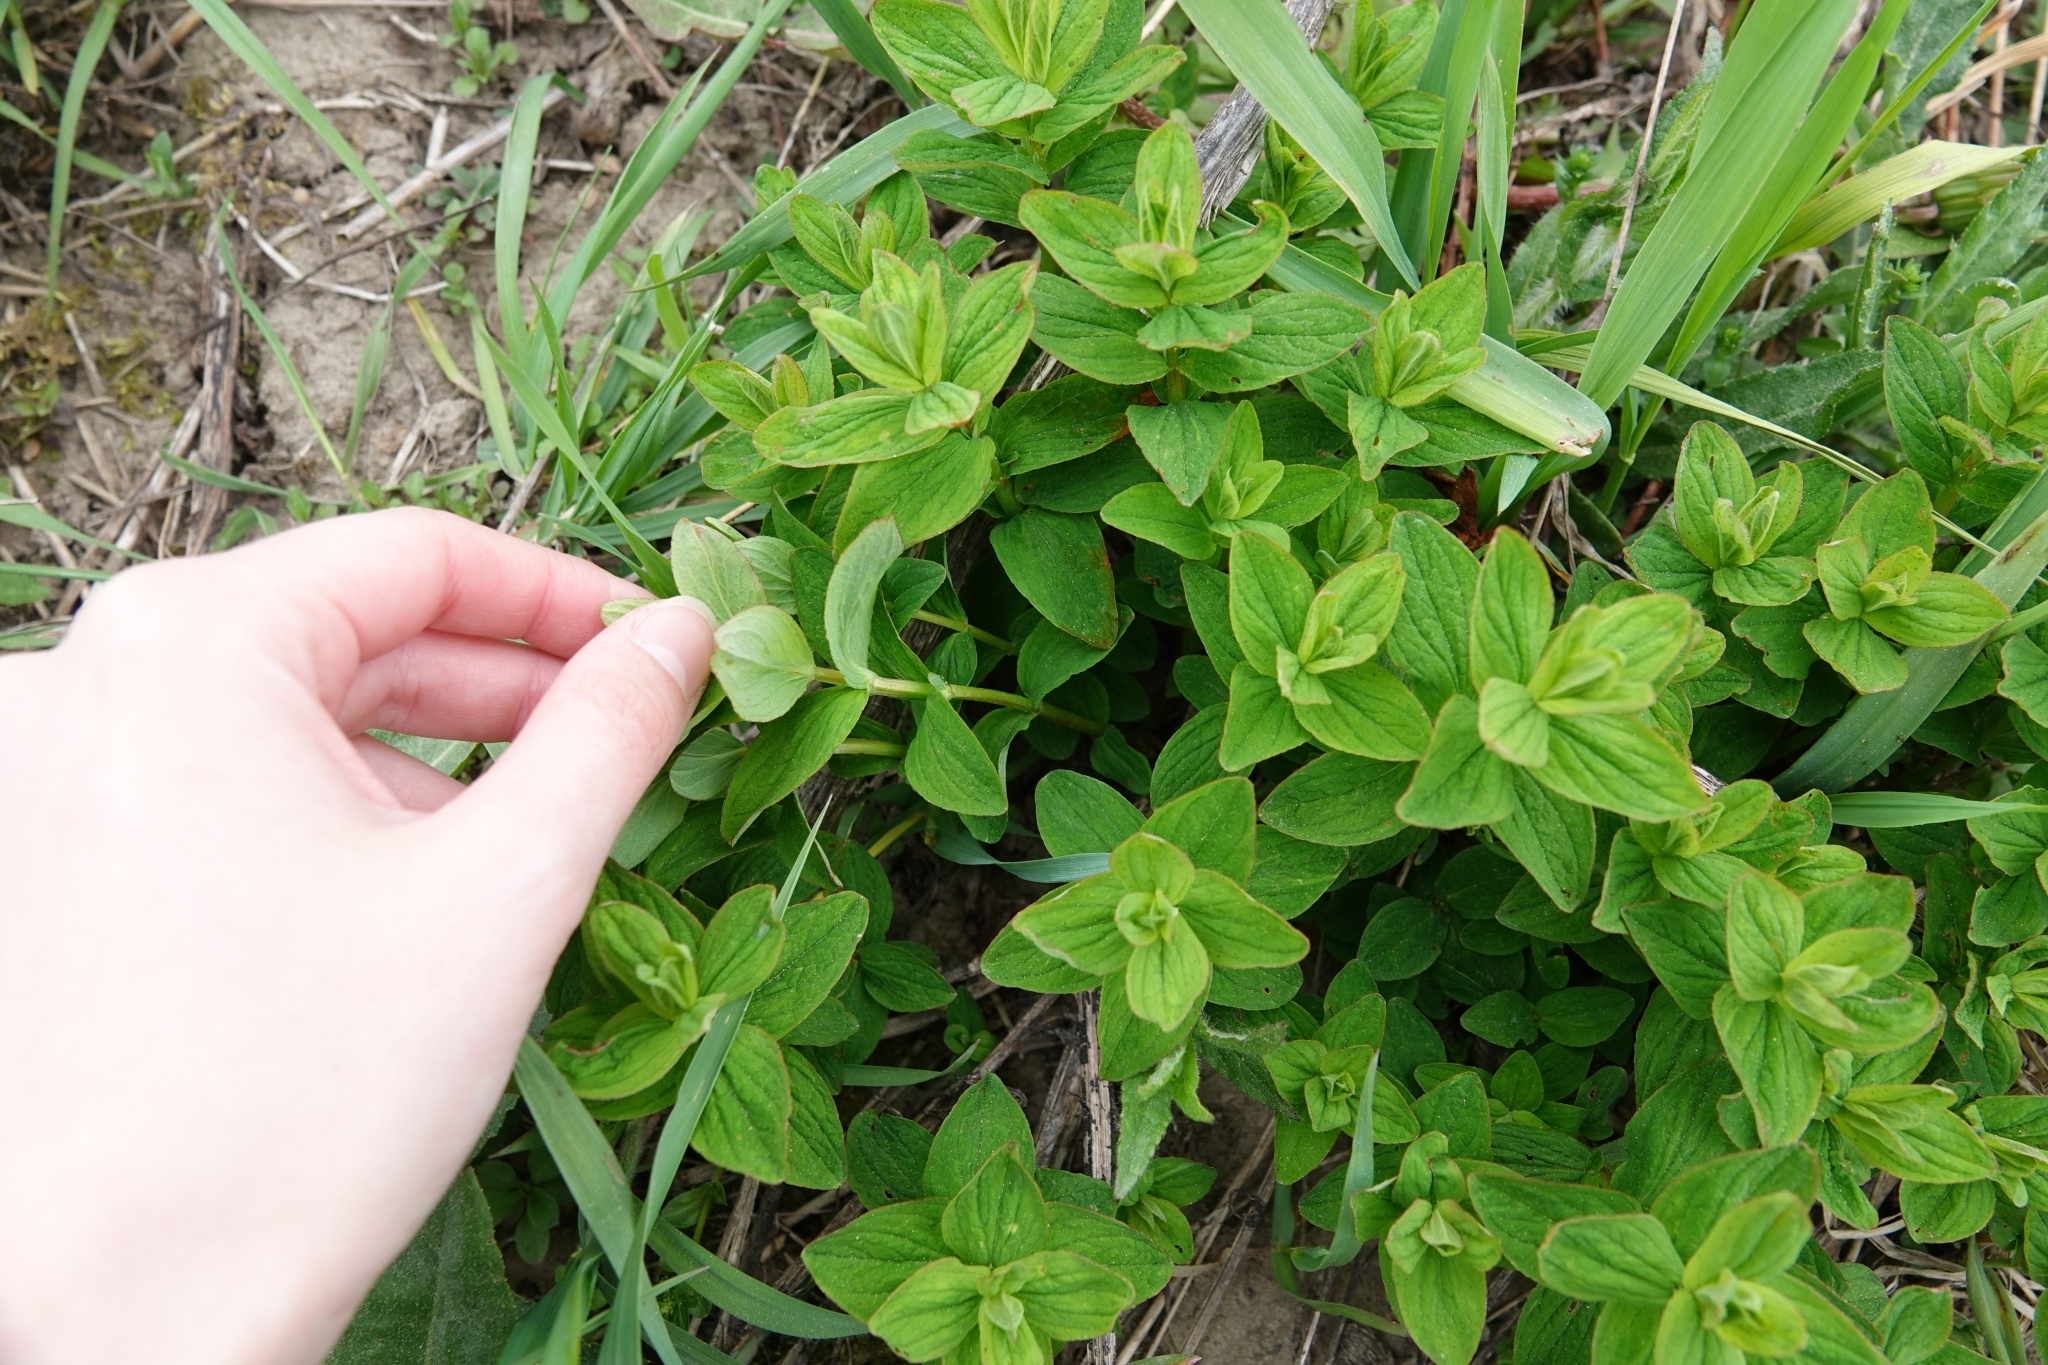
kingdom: Plantae
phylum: Tracheophyta
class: Magnoliopsida
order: Malpighiales
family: Hypericaceae
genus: Hypericum
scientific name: Hypericum maculatum
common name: Imperforate st. john's-wort
